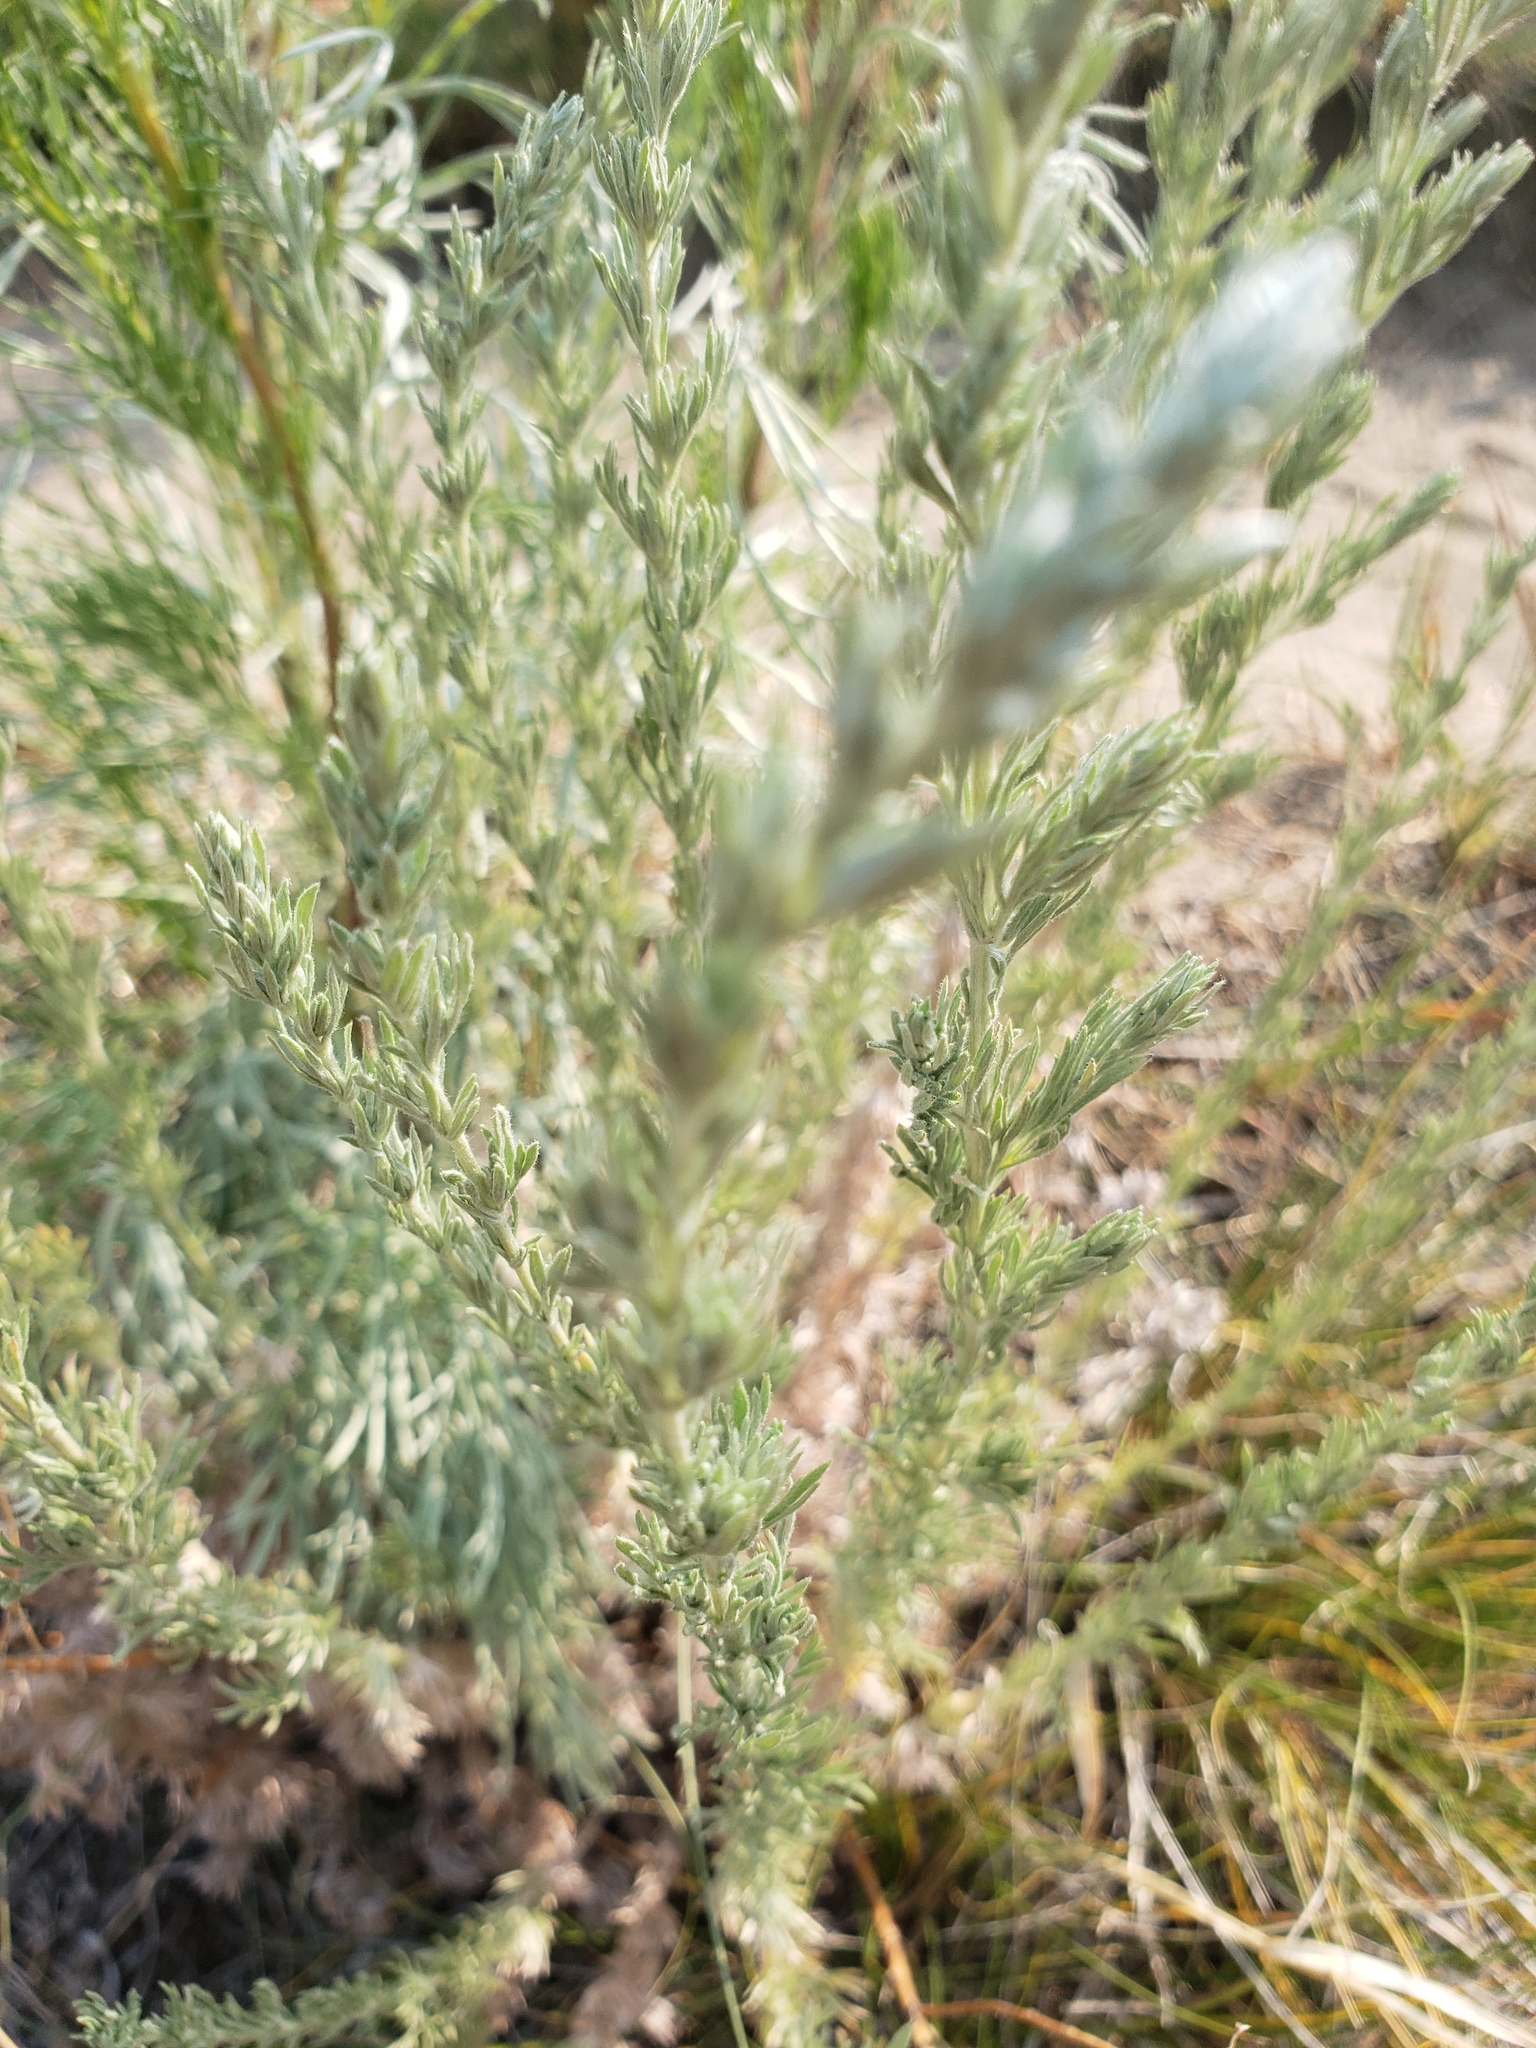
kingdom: Plantae
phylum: Tracheophyta
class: Magnoliopsida
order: Asterales
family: Asteraceae
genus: Artemisia
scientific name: Artemisia frigida
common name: Prairie sagewort
